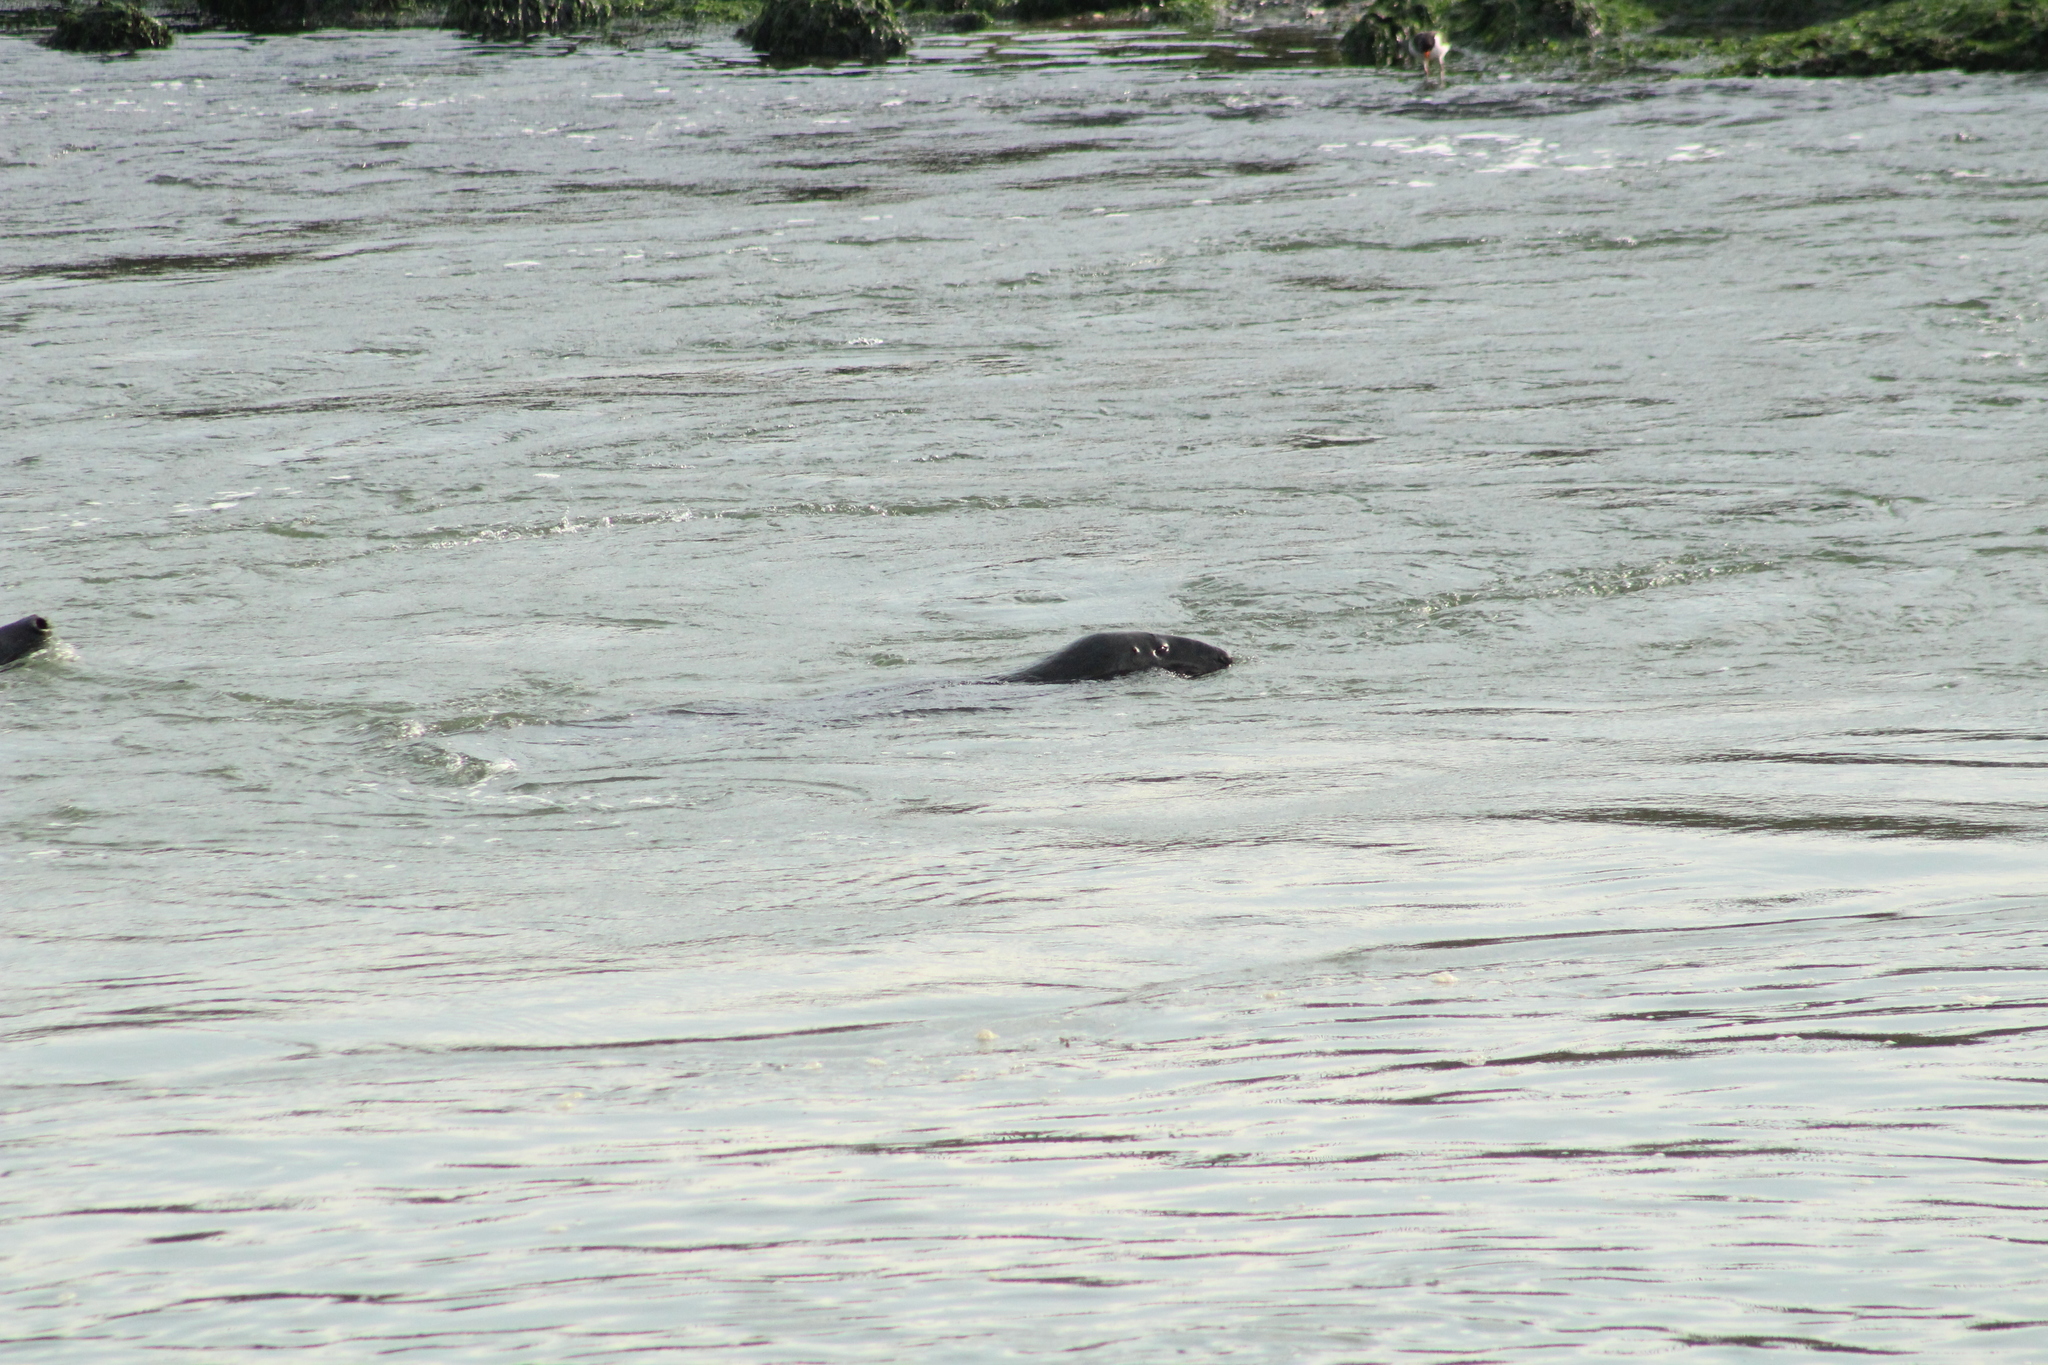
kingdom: Animalia
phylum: Chordata
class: Mammalia
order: Carnivora
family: Phocidae
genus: Halichoerus
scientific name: Halichoerus grypus
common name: Grey seal
